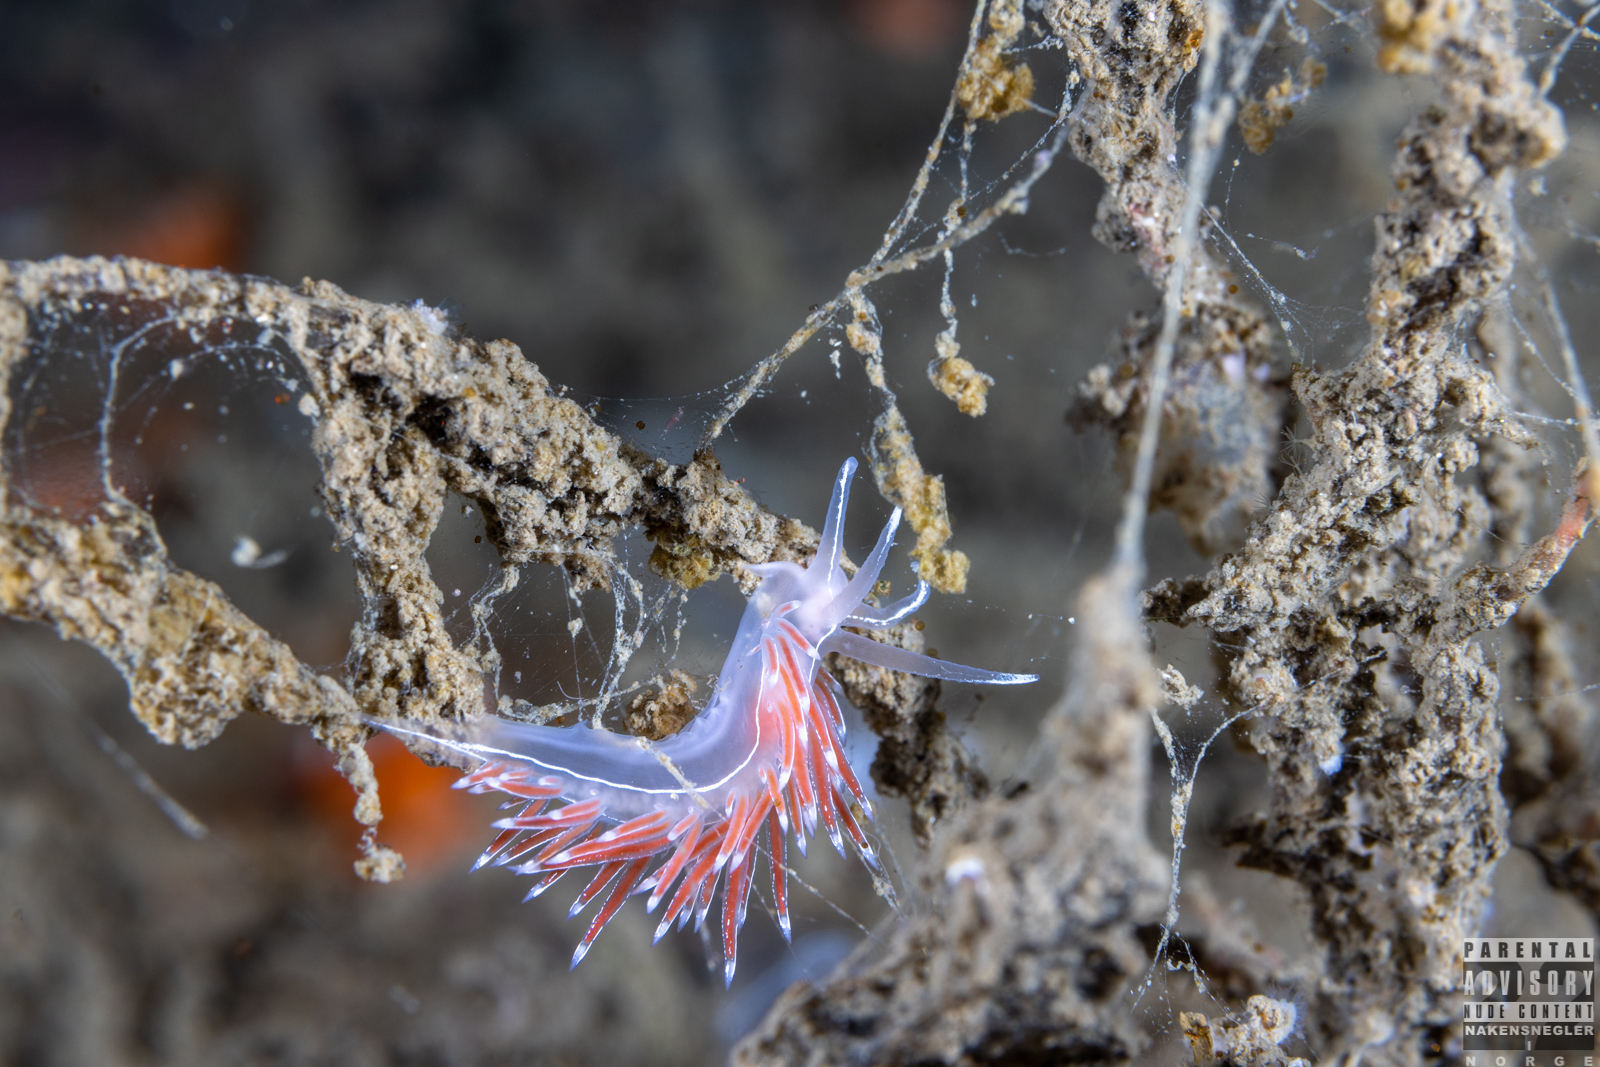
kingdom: Animalia
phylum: Mollusca
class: Gastropoda
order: Nudibranchia
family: Coryphellidae
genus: Coryphella
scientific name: Coryphella lineata
